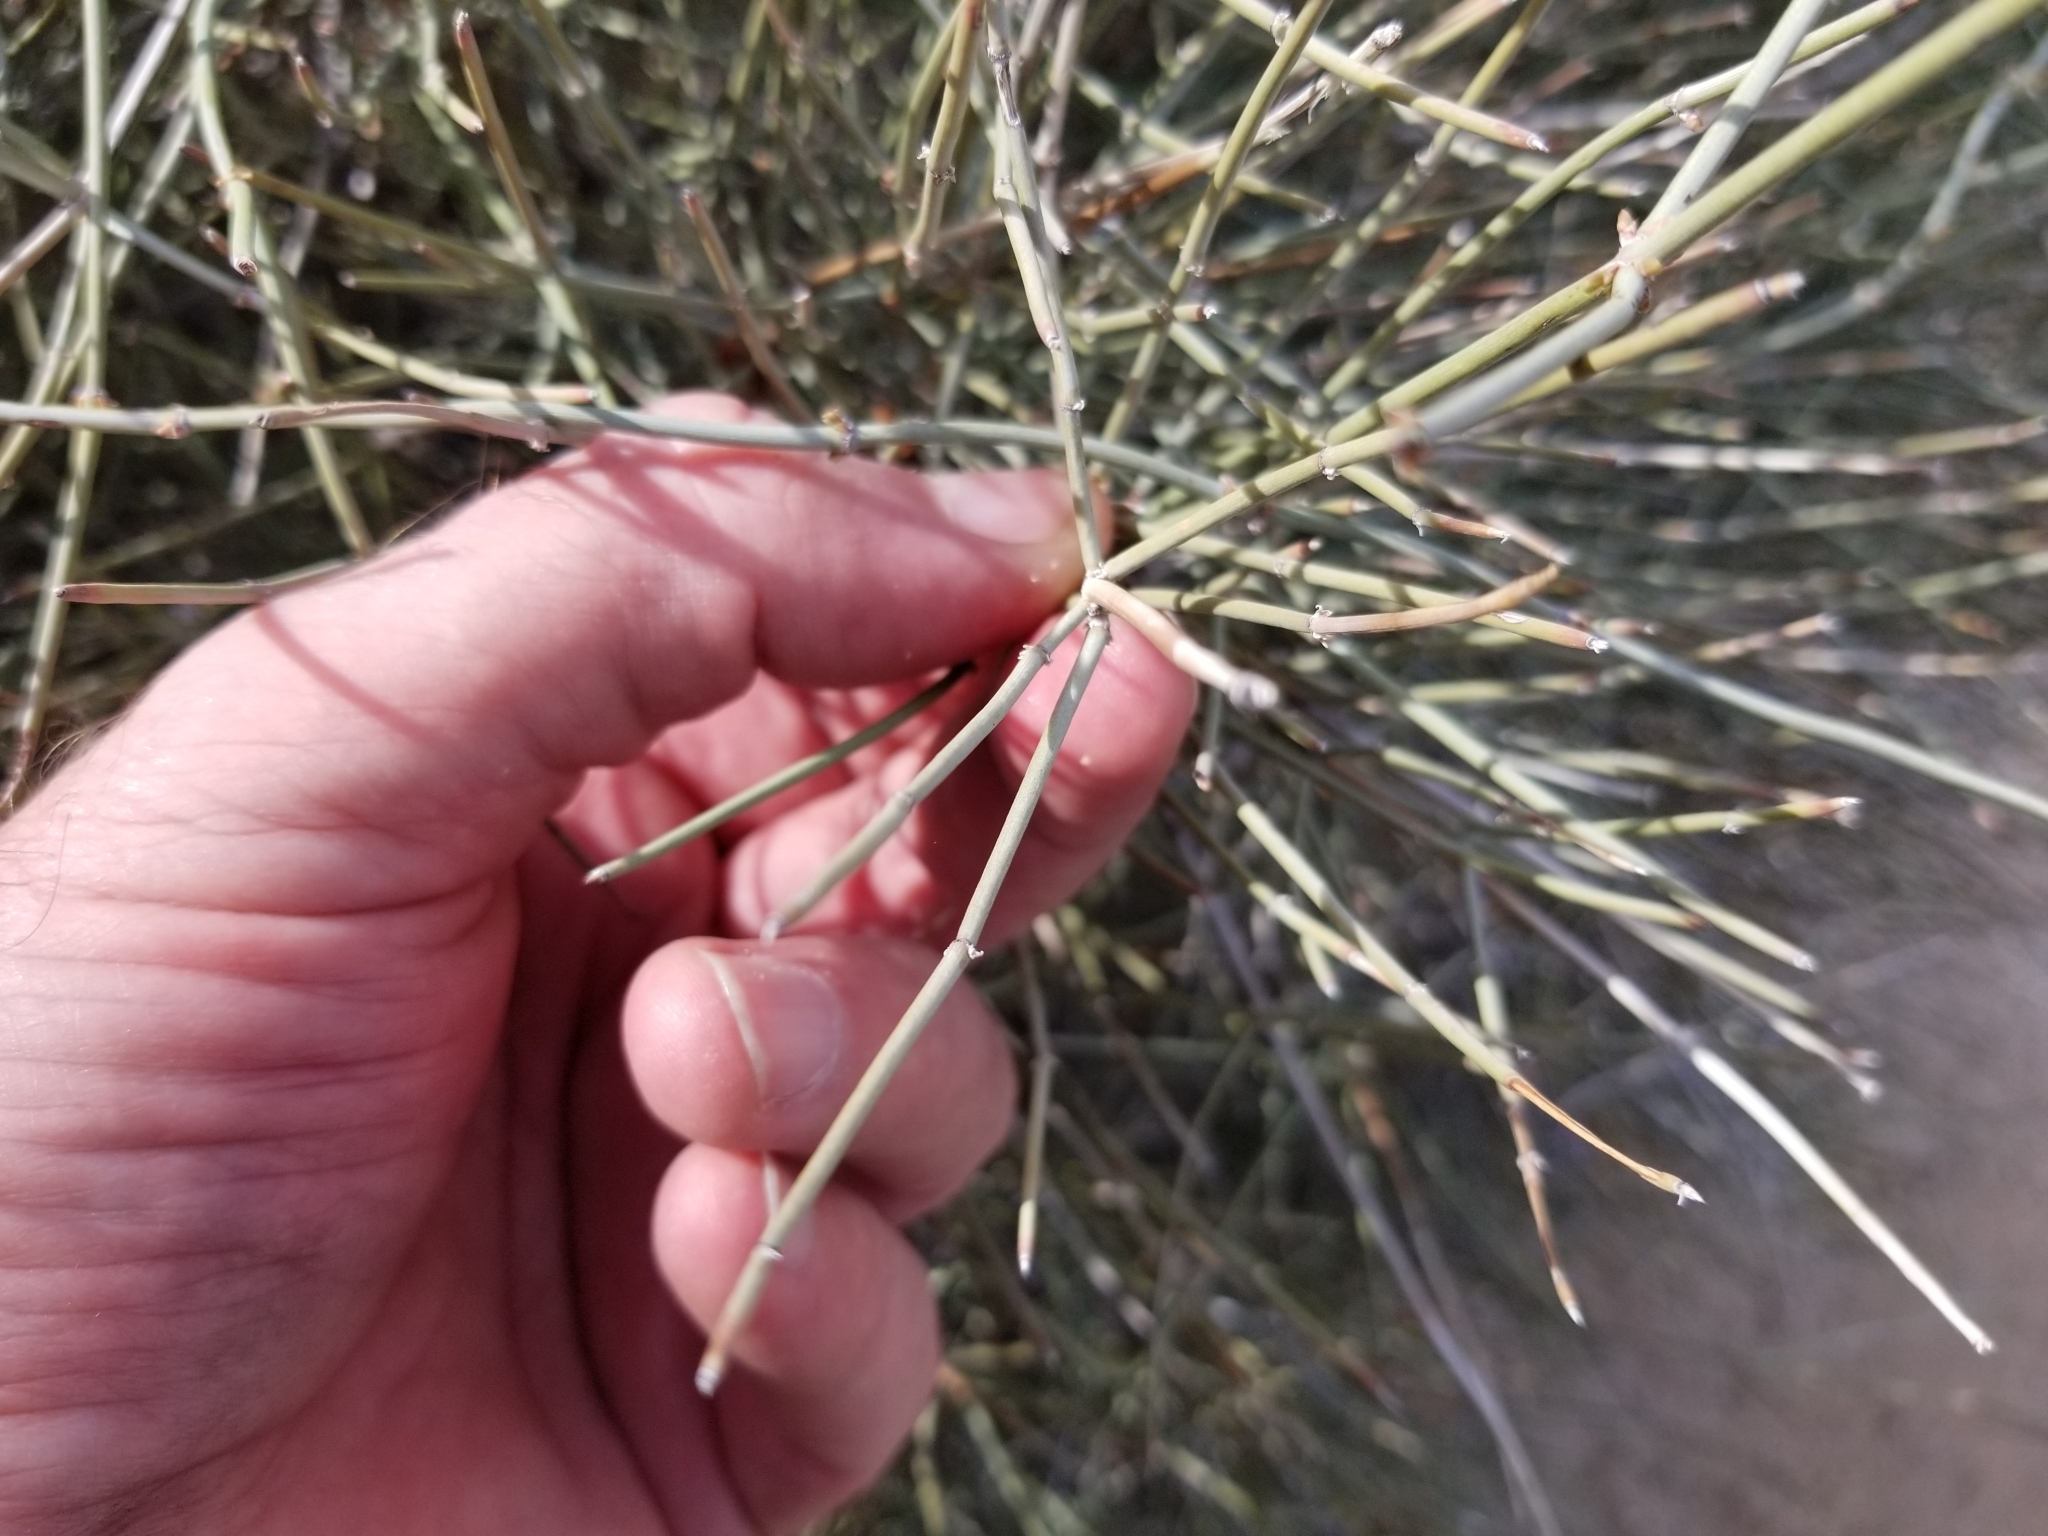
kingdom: Plantae
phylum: Tracheophyta
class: Gnetopsida
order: Ephedrales
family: Ephedraceae
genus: Ephedra
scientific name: Ephedra aspera
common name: Boundary ephedra
